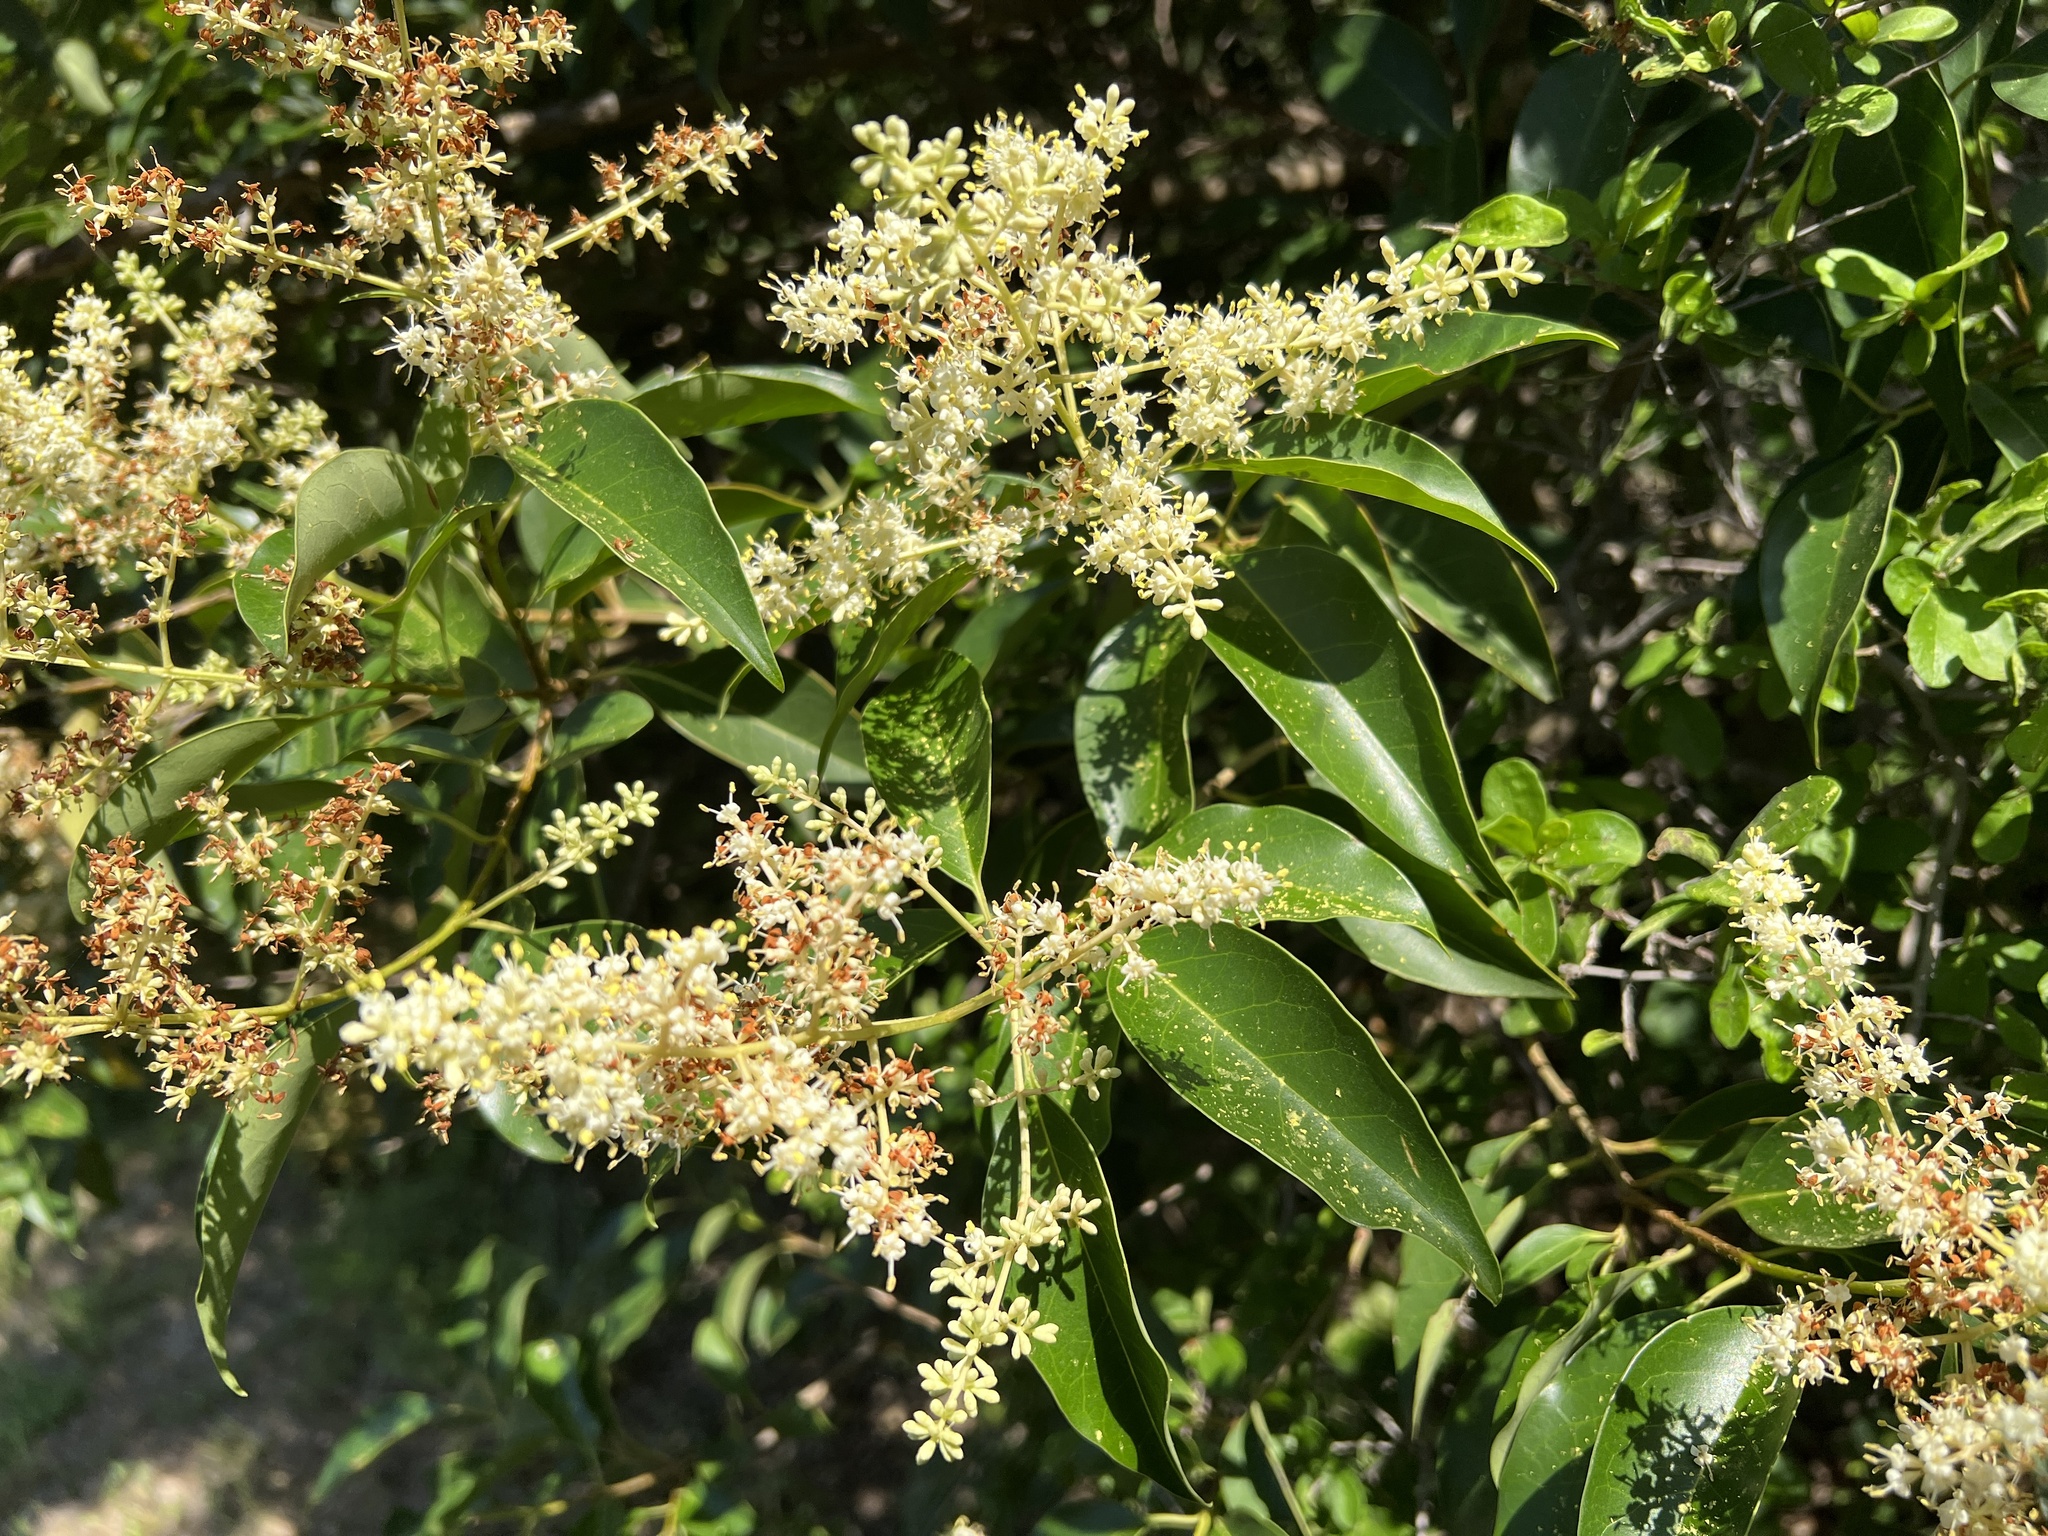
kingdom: Plantae
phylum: Tracheophyta
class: Magnoliopsida
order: Lamiales
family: Oleaceae
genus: Ligustrum
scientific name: Ligustrum lucidum
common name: Glossy privet
